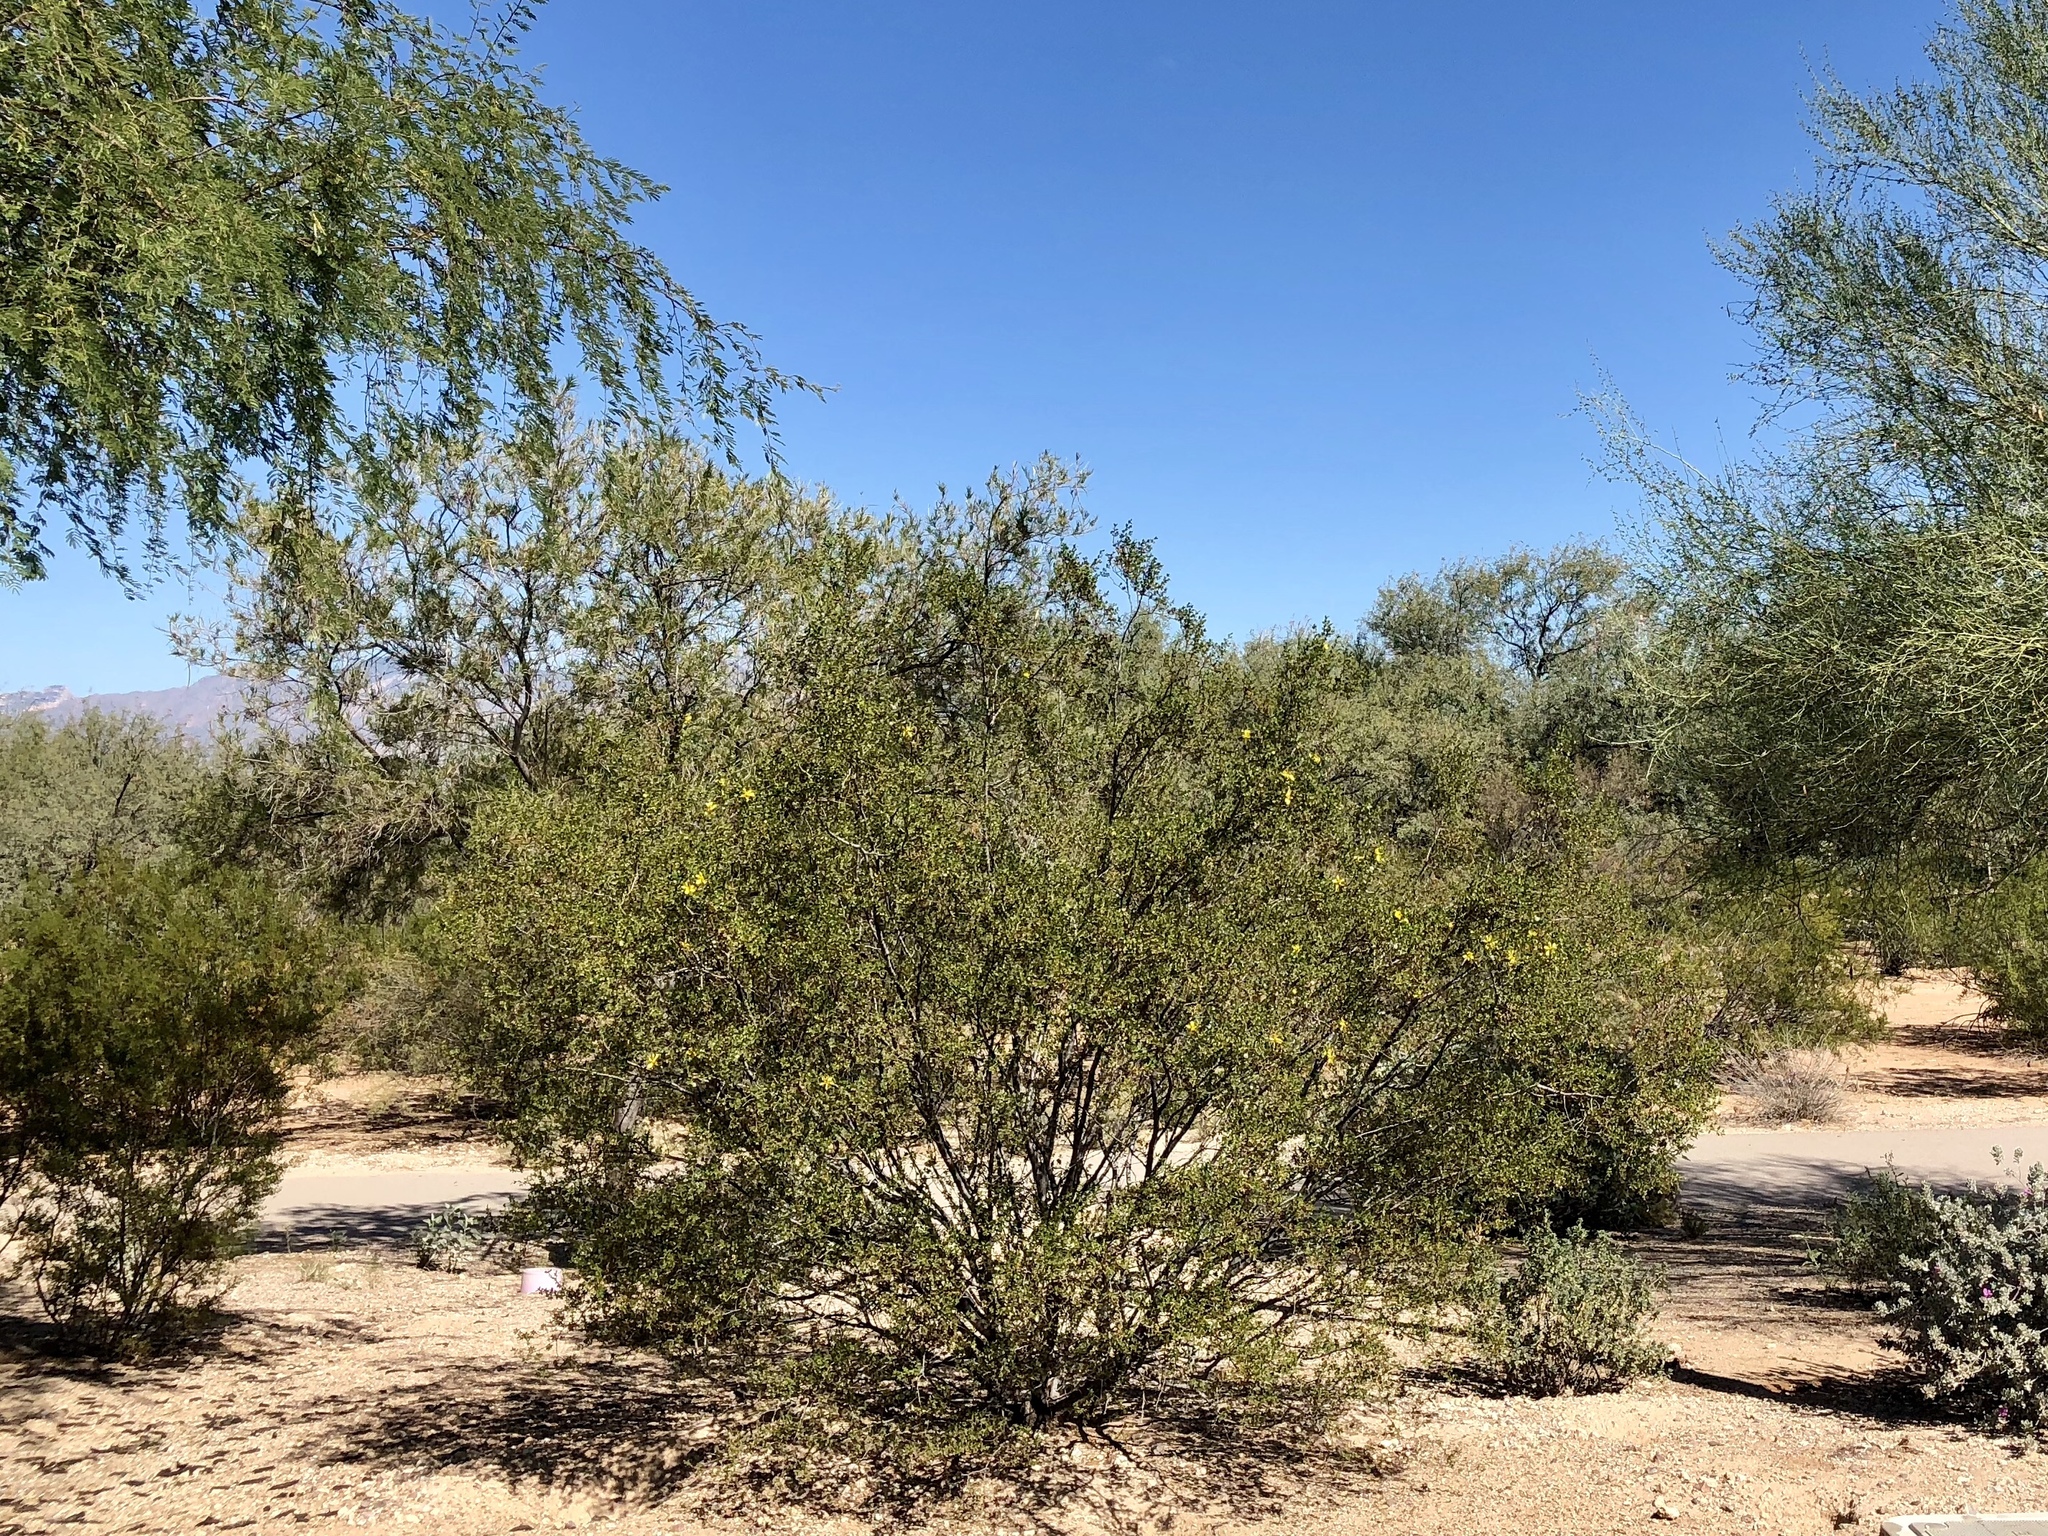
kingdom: Plantae
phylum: Tracheophyta
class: Magnoliopsida
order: Zygophyllales
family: Zygophyllaceae
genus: Larrea
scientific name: Larrea tridentata
